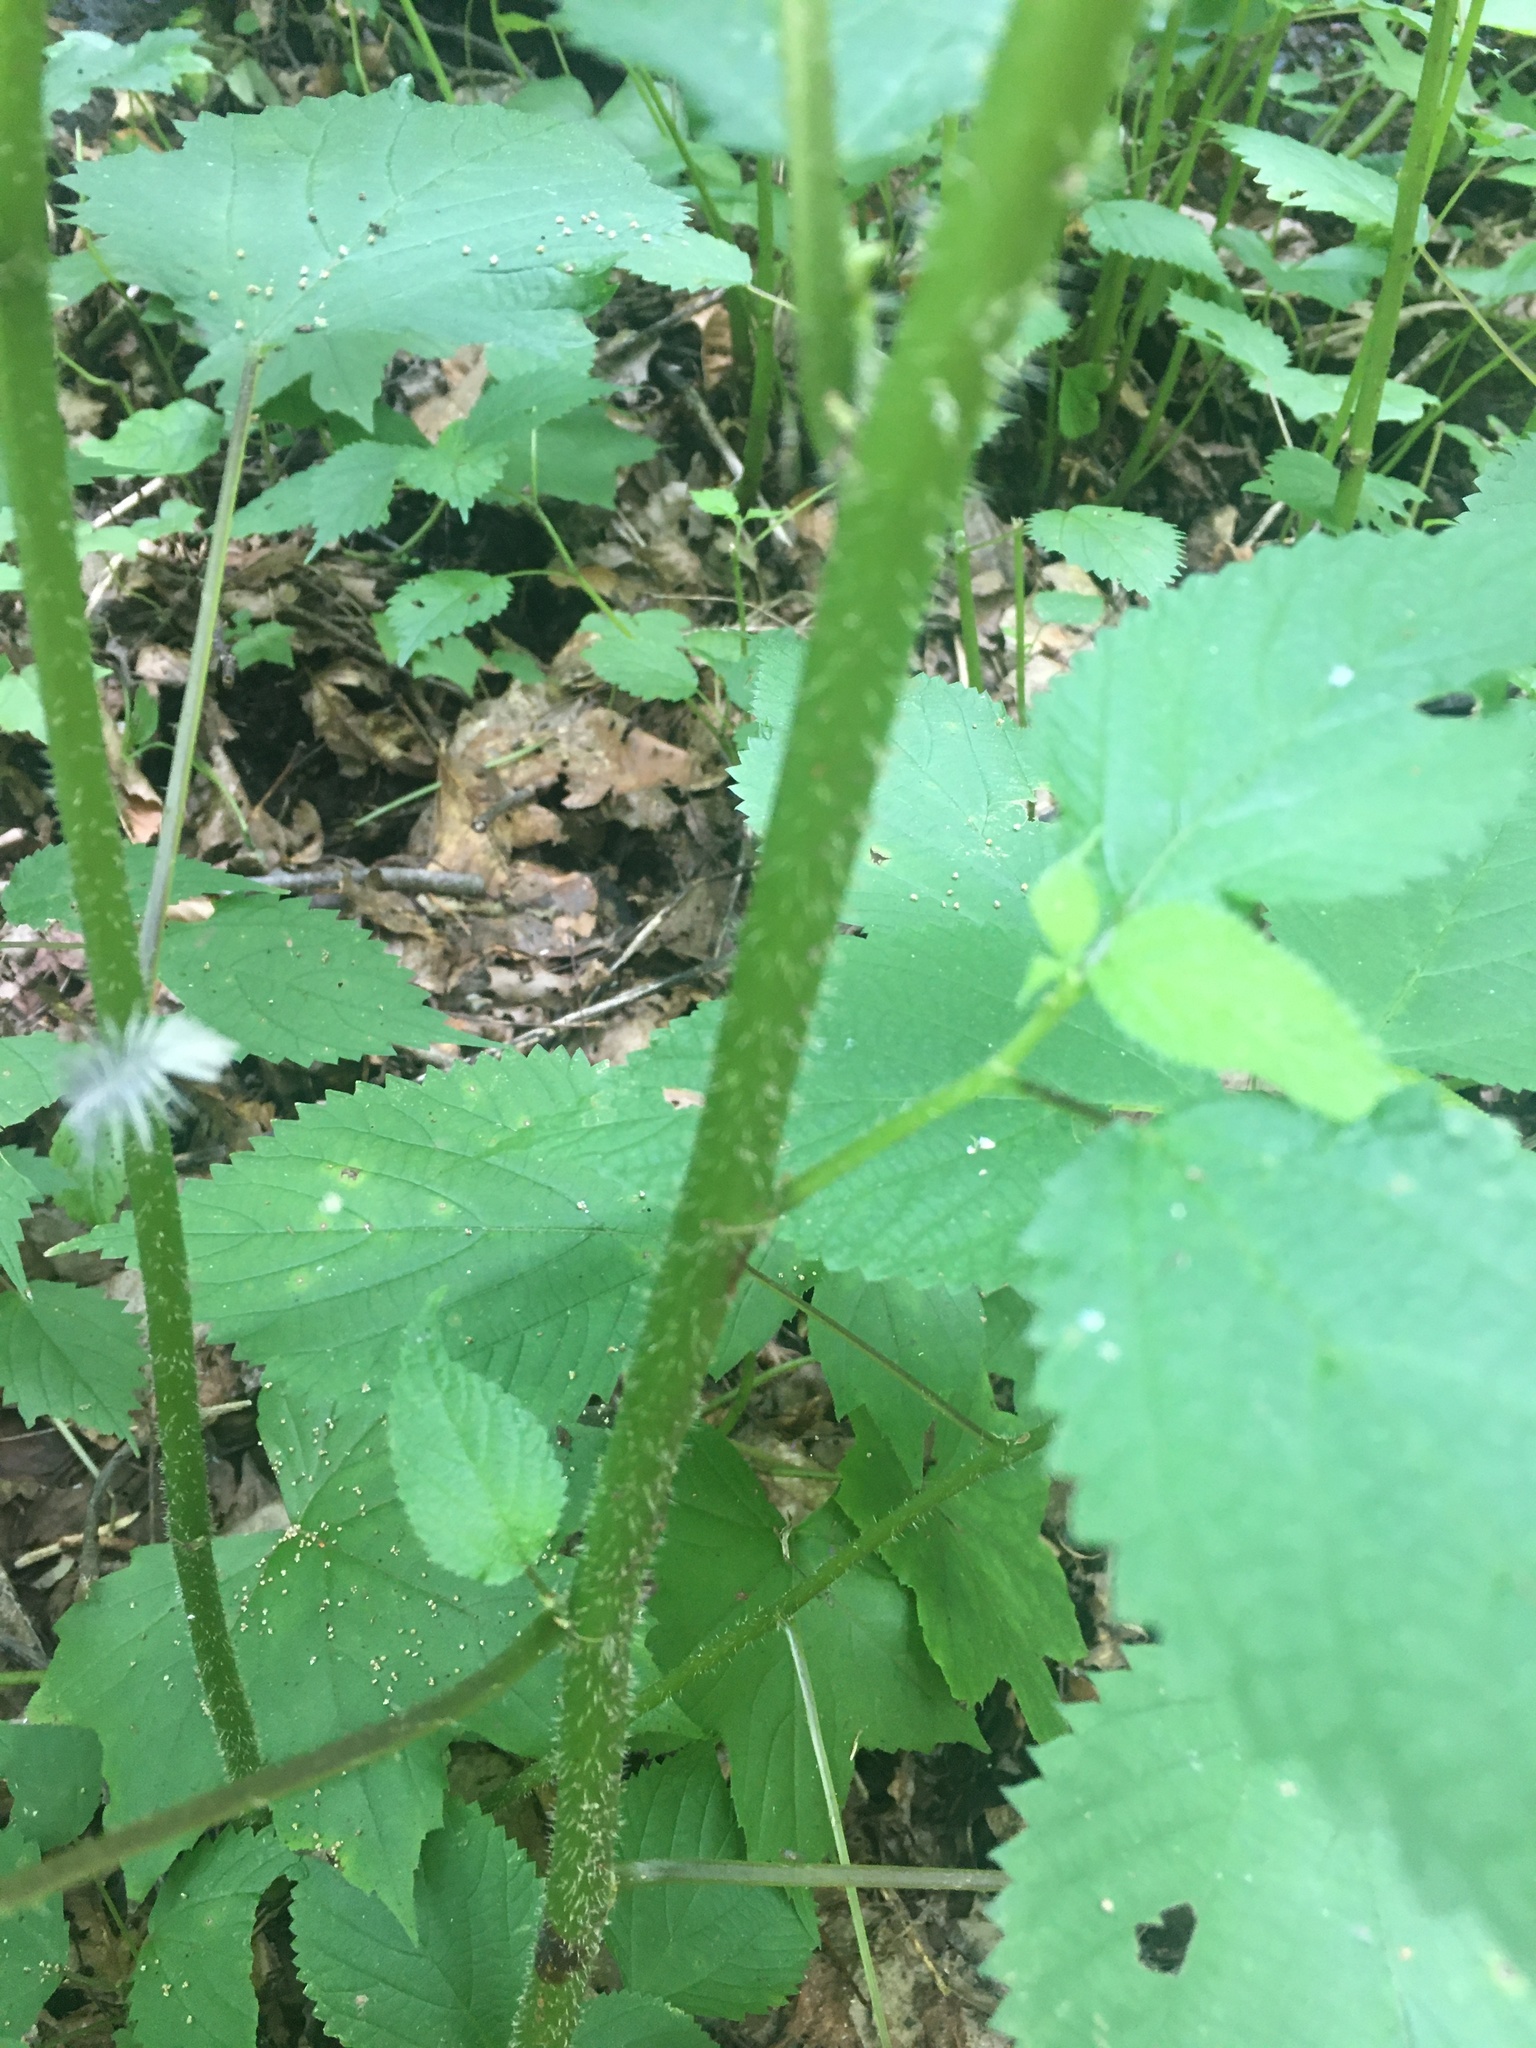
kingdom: Plantae
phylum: Tracheophyta
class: Magnoliopsida
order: Rosales
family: Urticaceae
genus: Laportea
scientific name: Laportea canadensis
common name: Canada nettle
